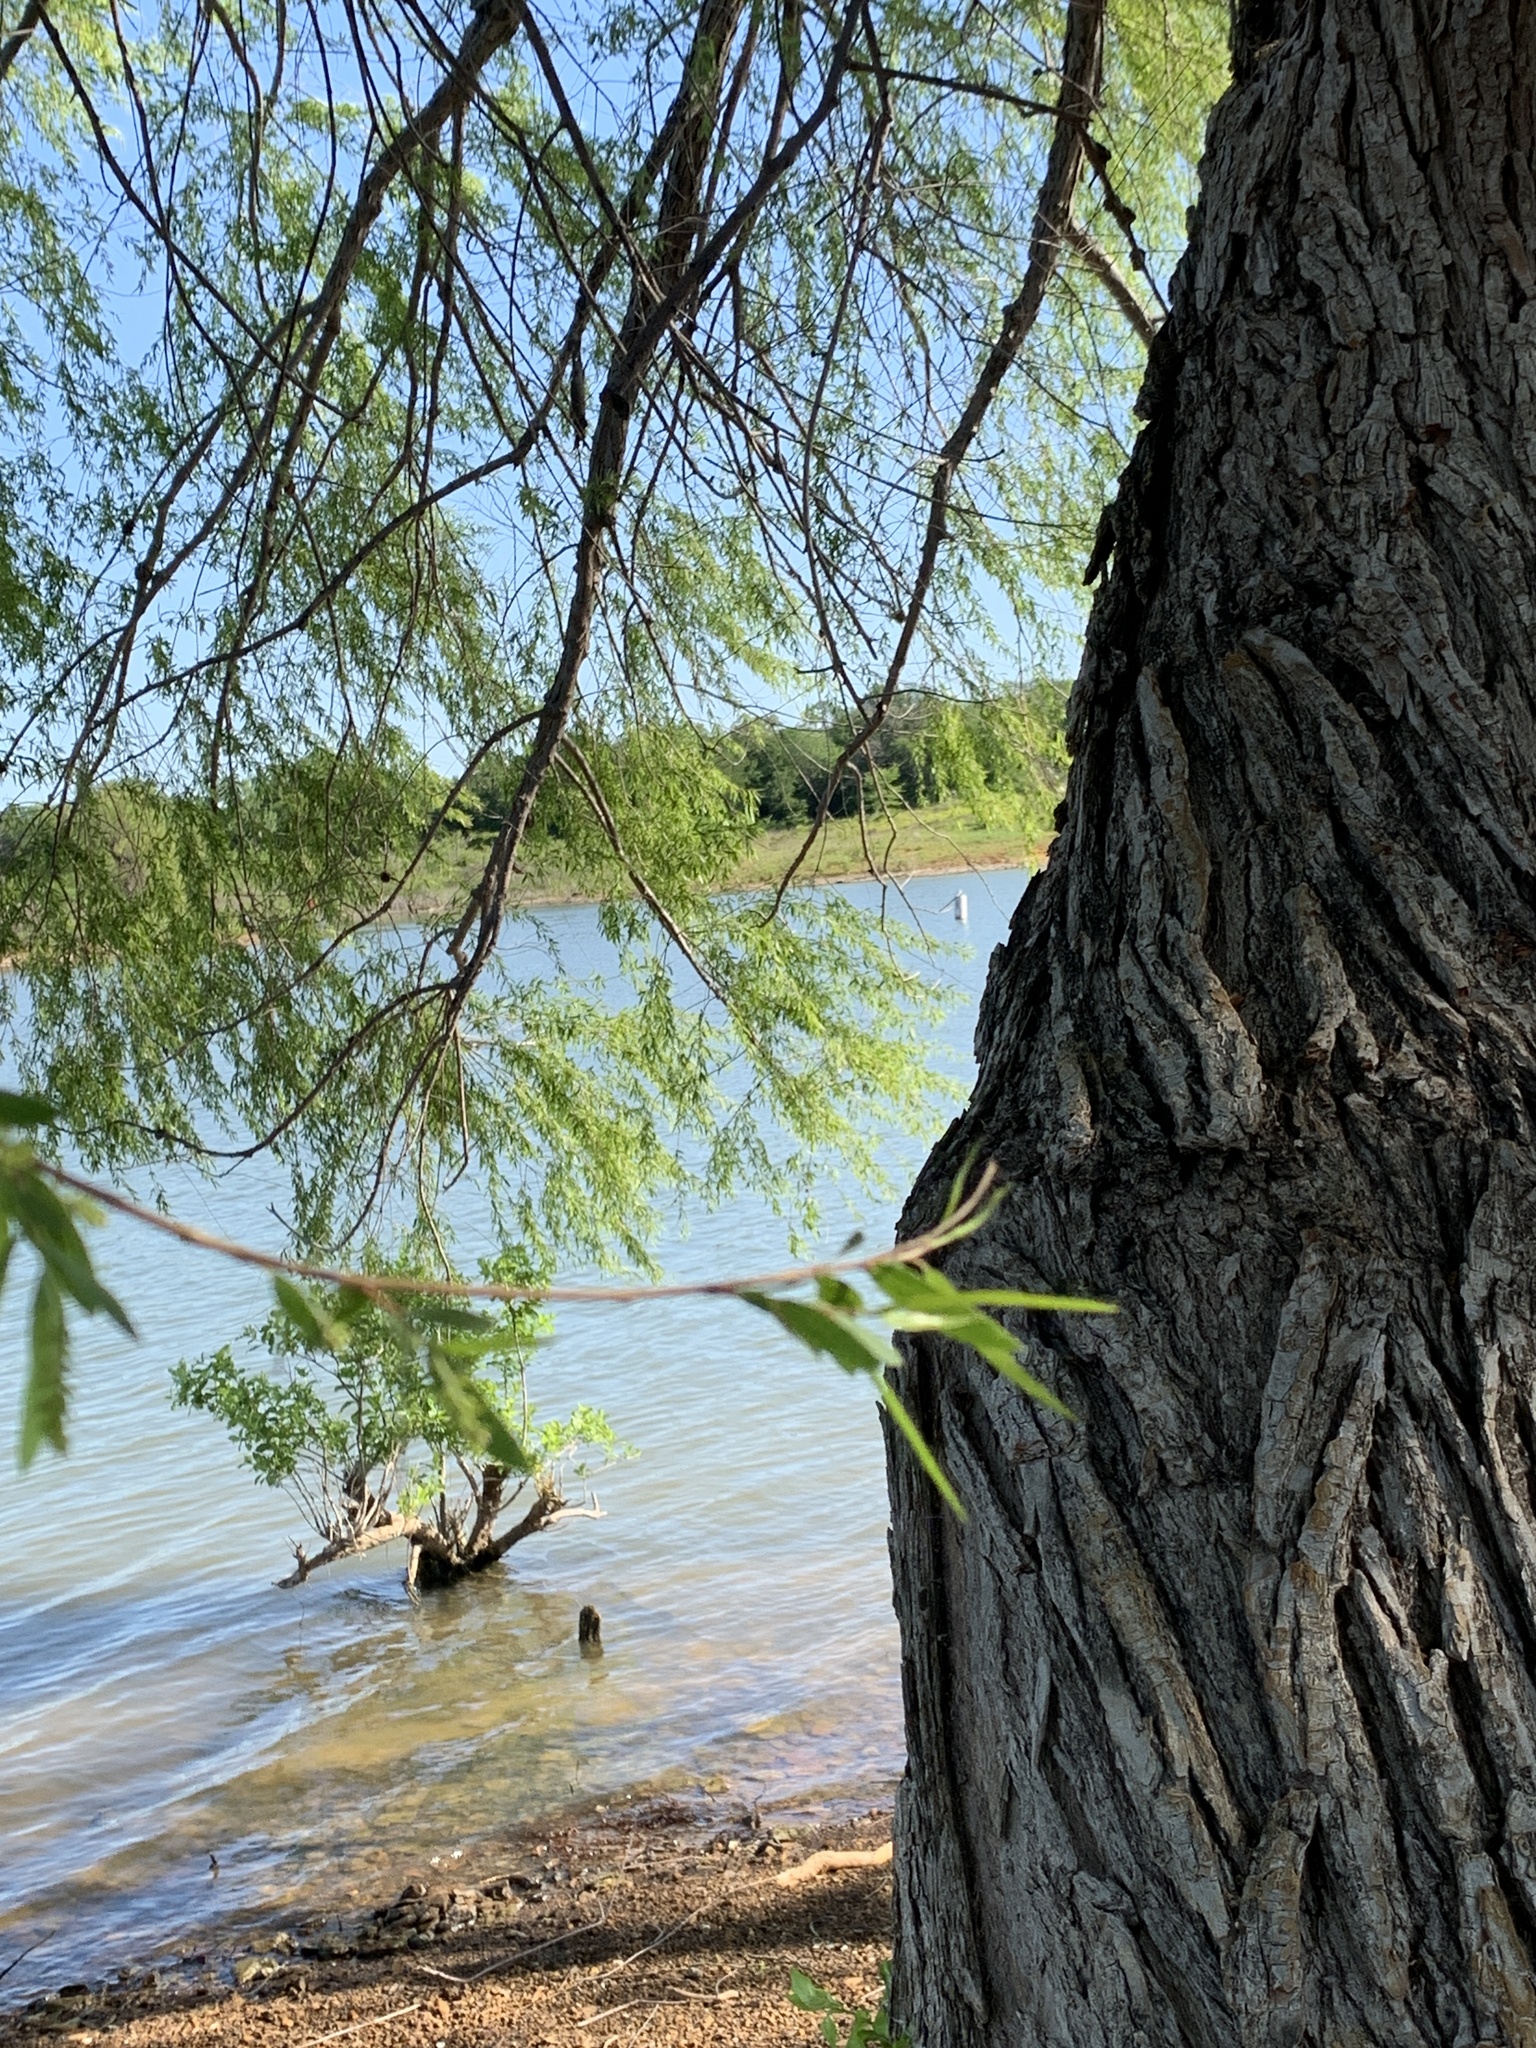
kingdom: Plantae
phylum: Tracheophyta
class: Magnoliopsida
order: Malpighiales
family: Salicaceae
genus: Salix
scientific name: Salix nigra
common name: Black willow
